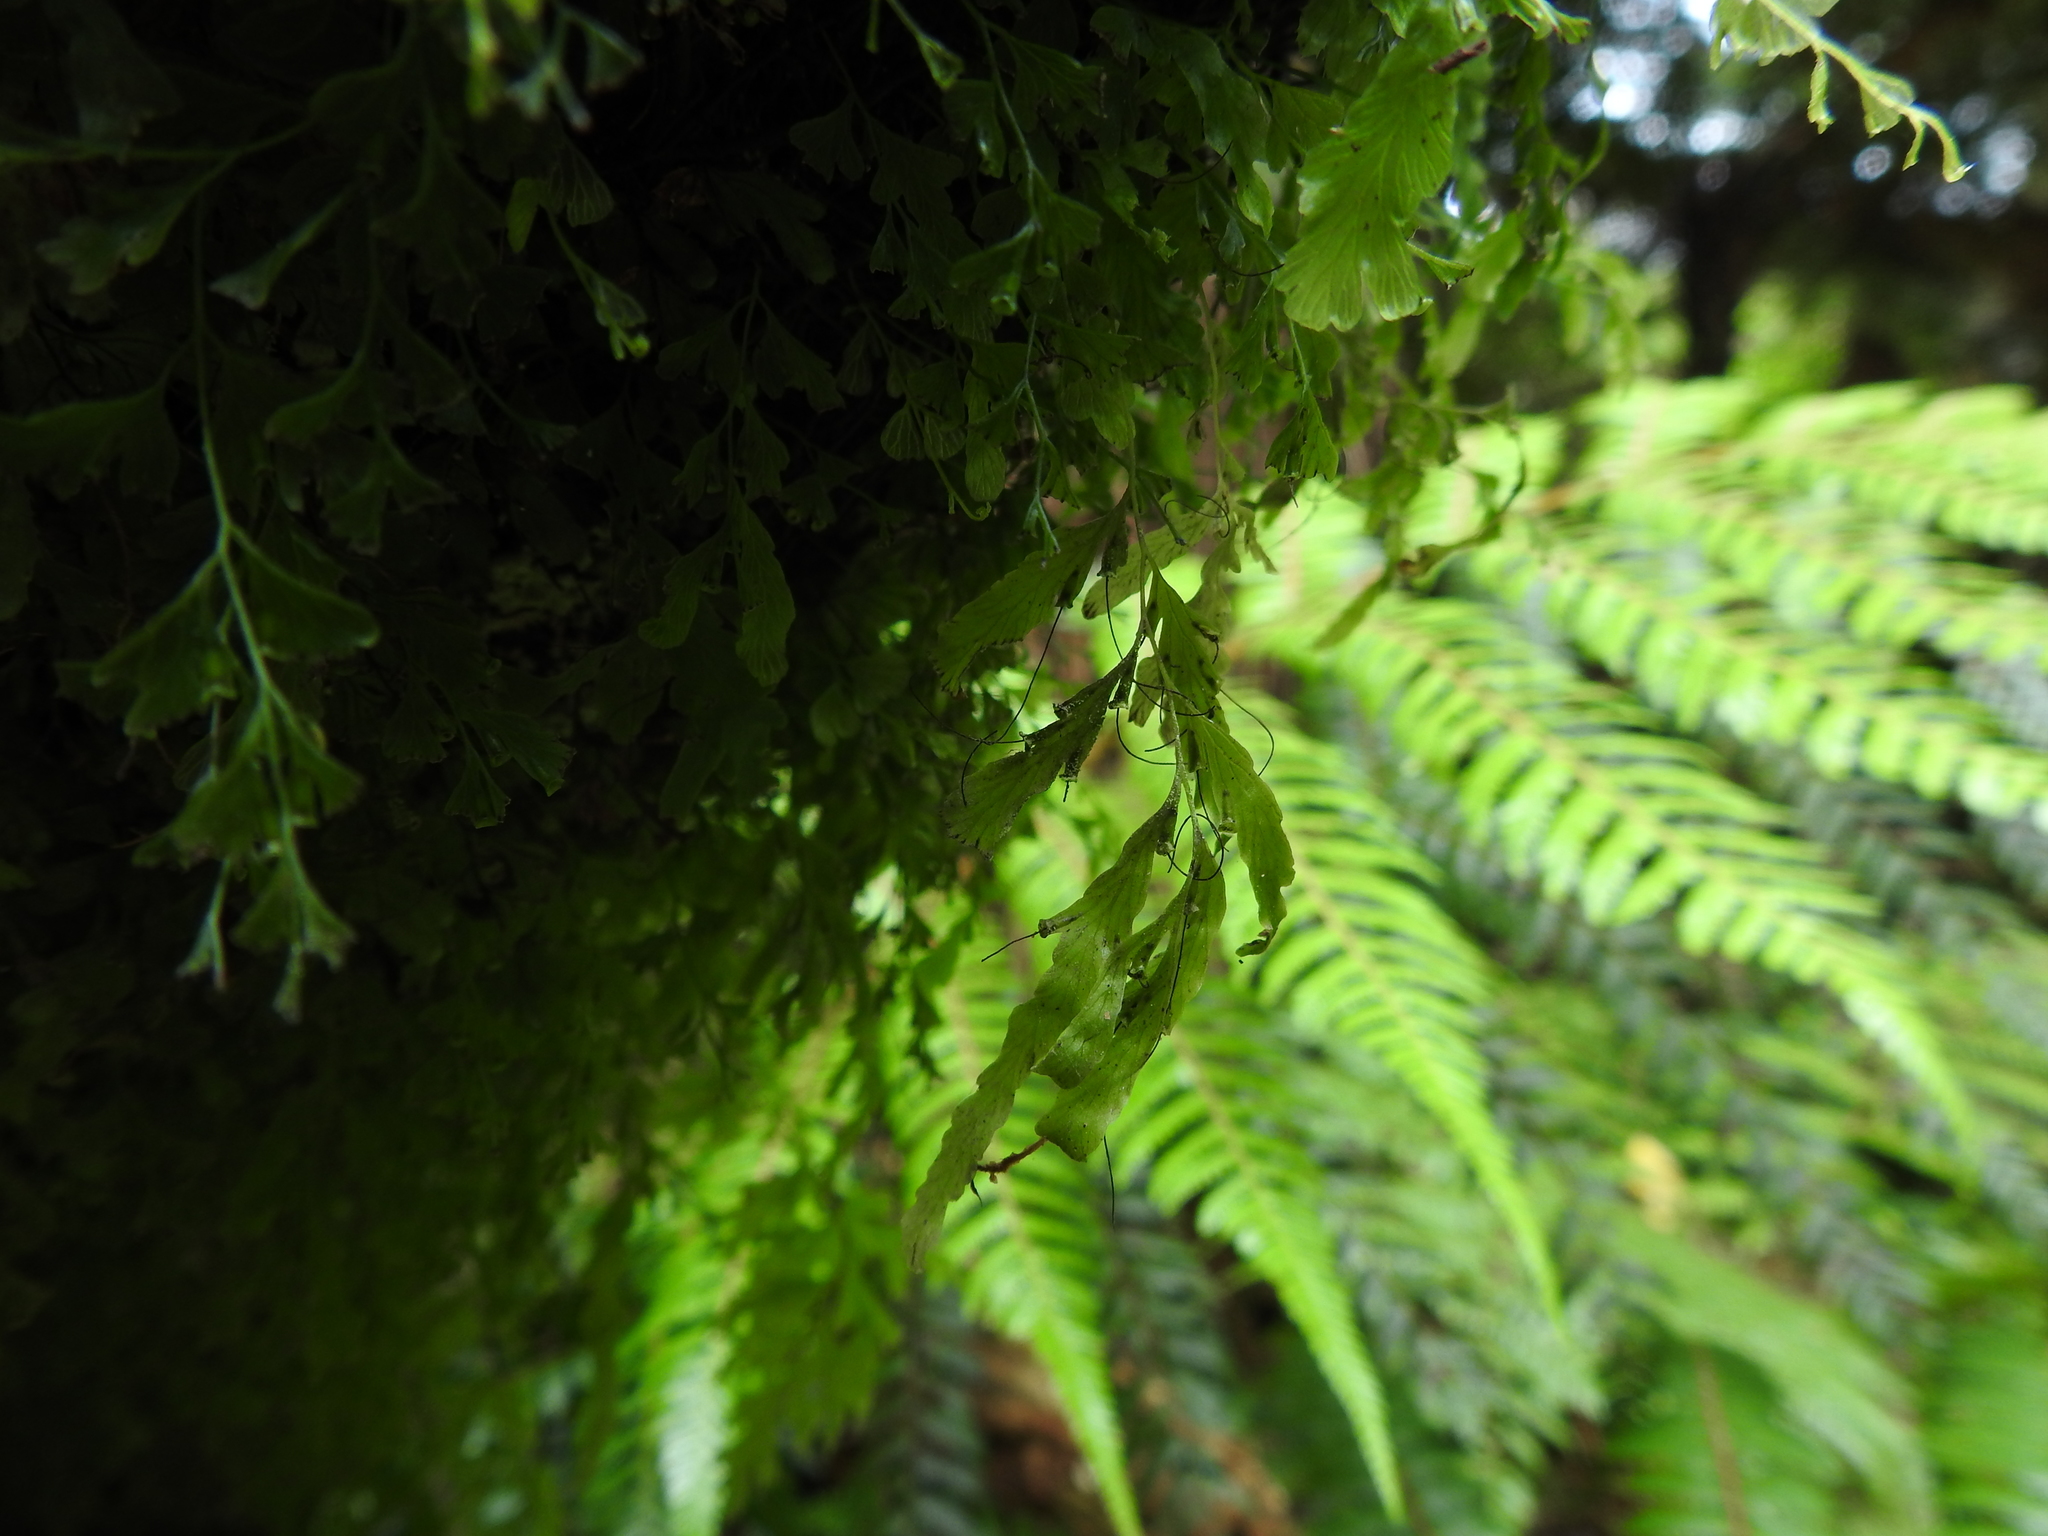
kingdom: Plantae
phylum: Tracheophyta
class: Polypodiopsida
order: Hymenophyllales
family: Hymenophyllaceae
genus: Polyphlebium
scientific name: Polyphlebium venosum
